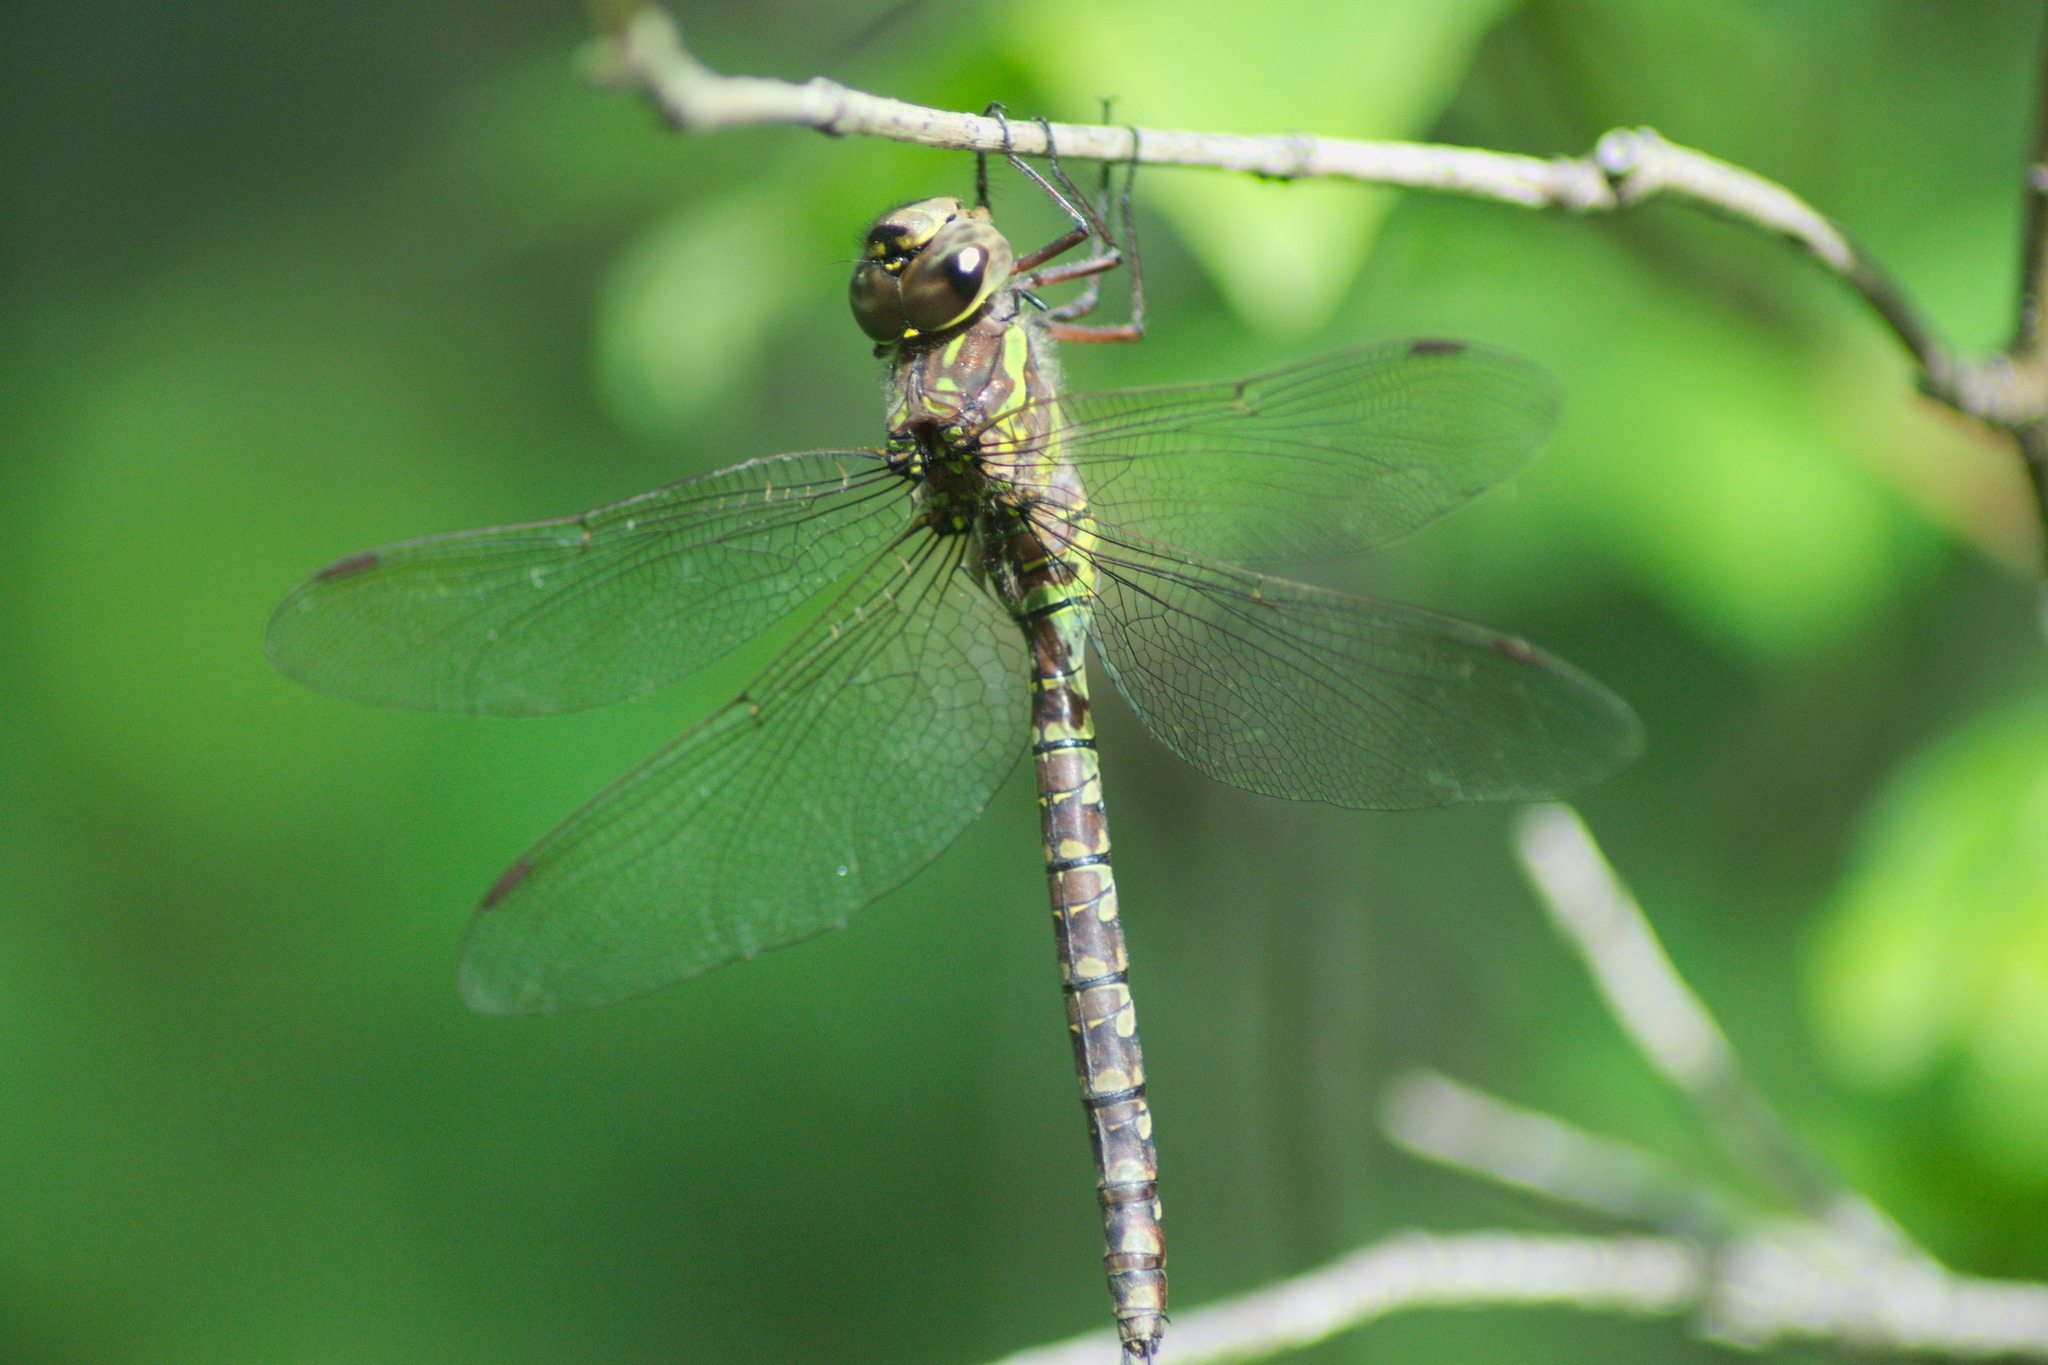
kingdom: Animalia
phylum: Arthropoda
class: Insecta
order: Odonata
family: Aeshnidae
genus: Aeshna
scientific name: Aeshna canadensis
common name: Canada darner
